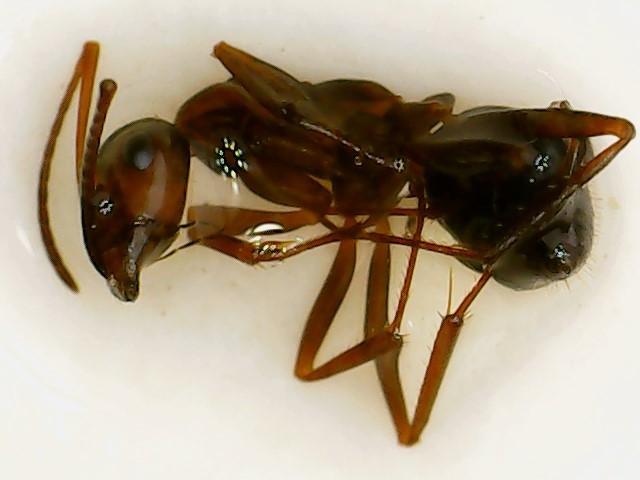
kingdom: Animalia
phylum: Arthropoda
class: Insecta
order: Hymenoptera
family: Formicidae
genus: Formica
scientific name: Formica pallidefulva
